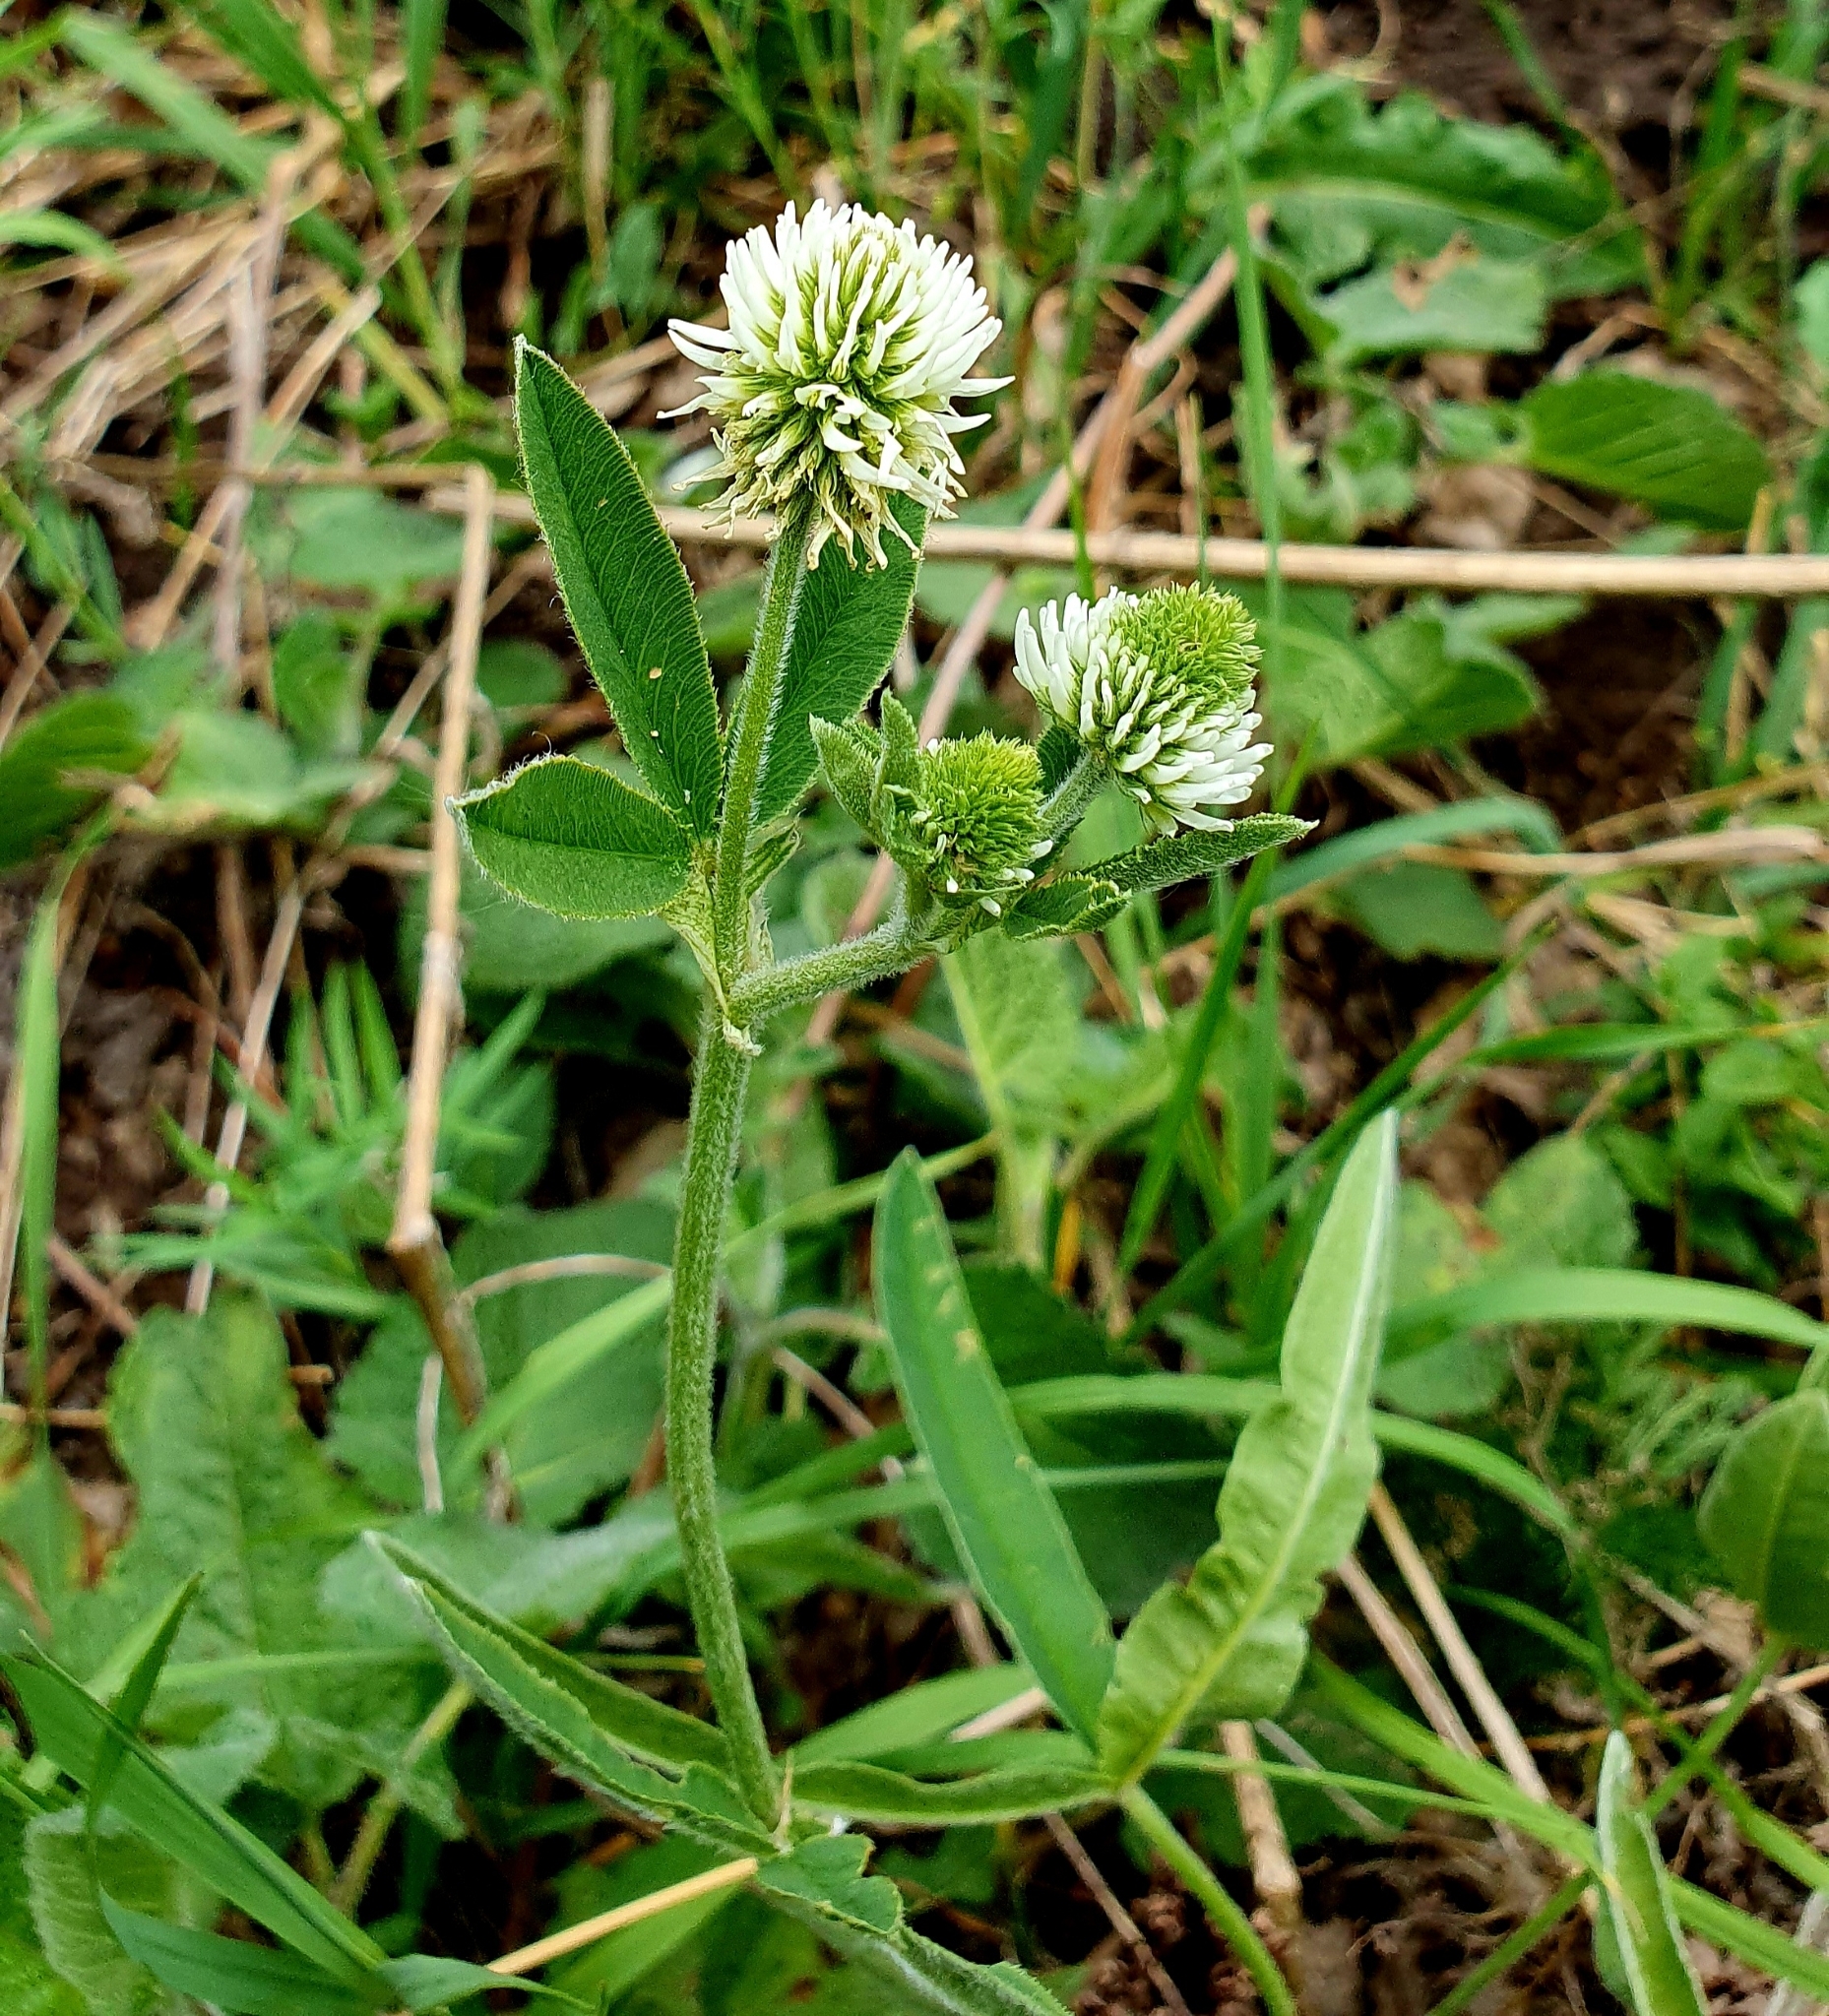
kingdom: Plantae
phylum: Tracheophyta
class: Magnoliopsida
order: Fabales
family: Fabaceae
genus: Trifolium
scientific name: Trifolium montanum
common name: Mountain clover
